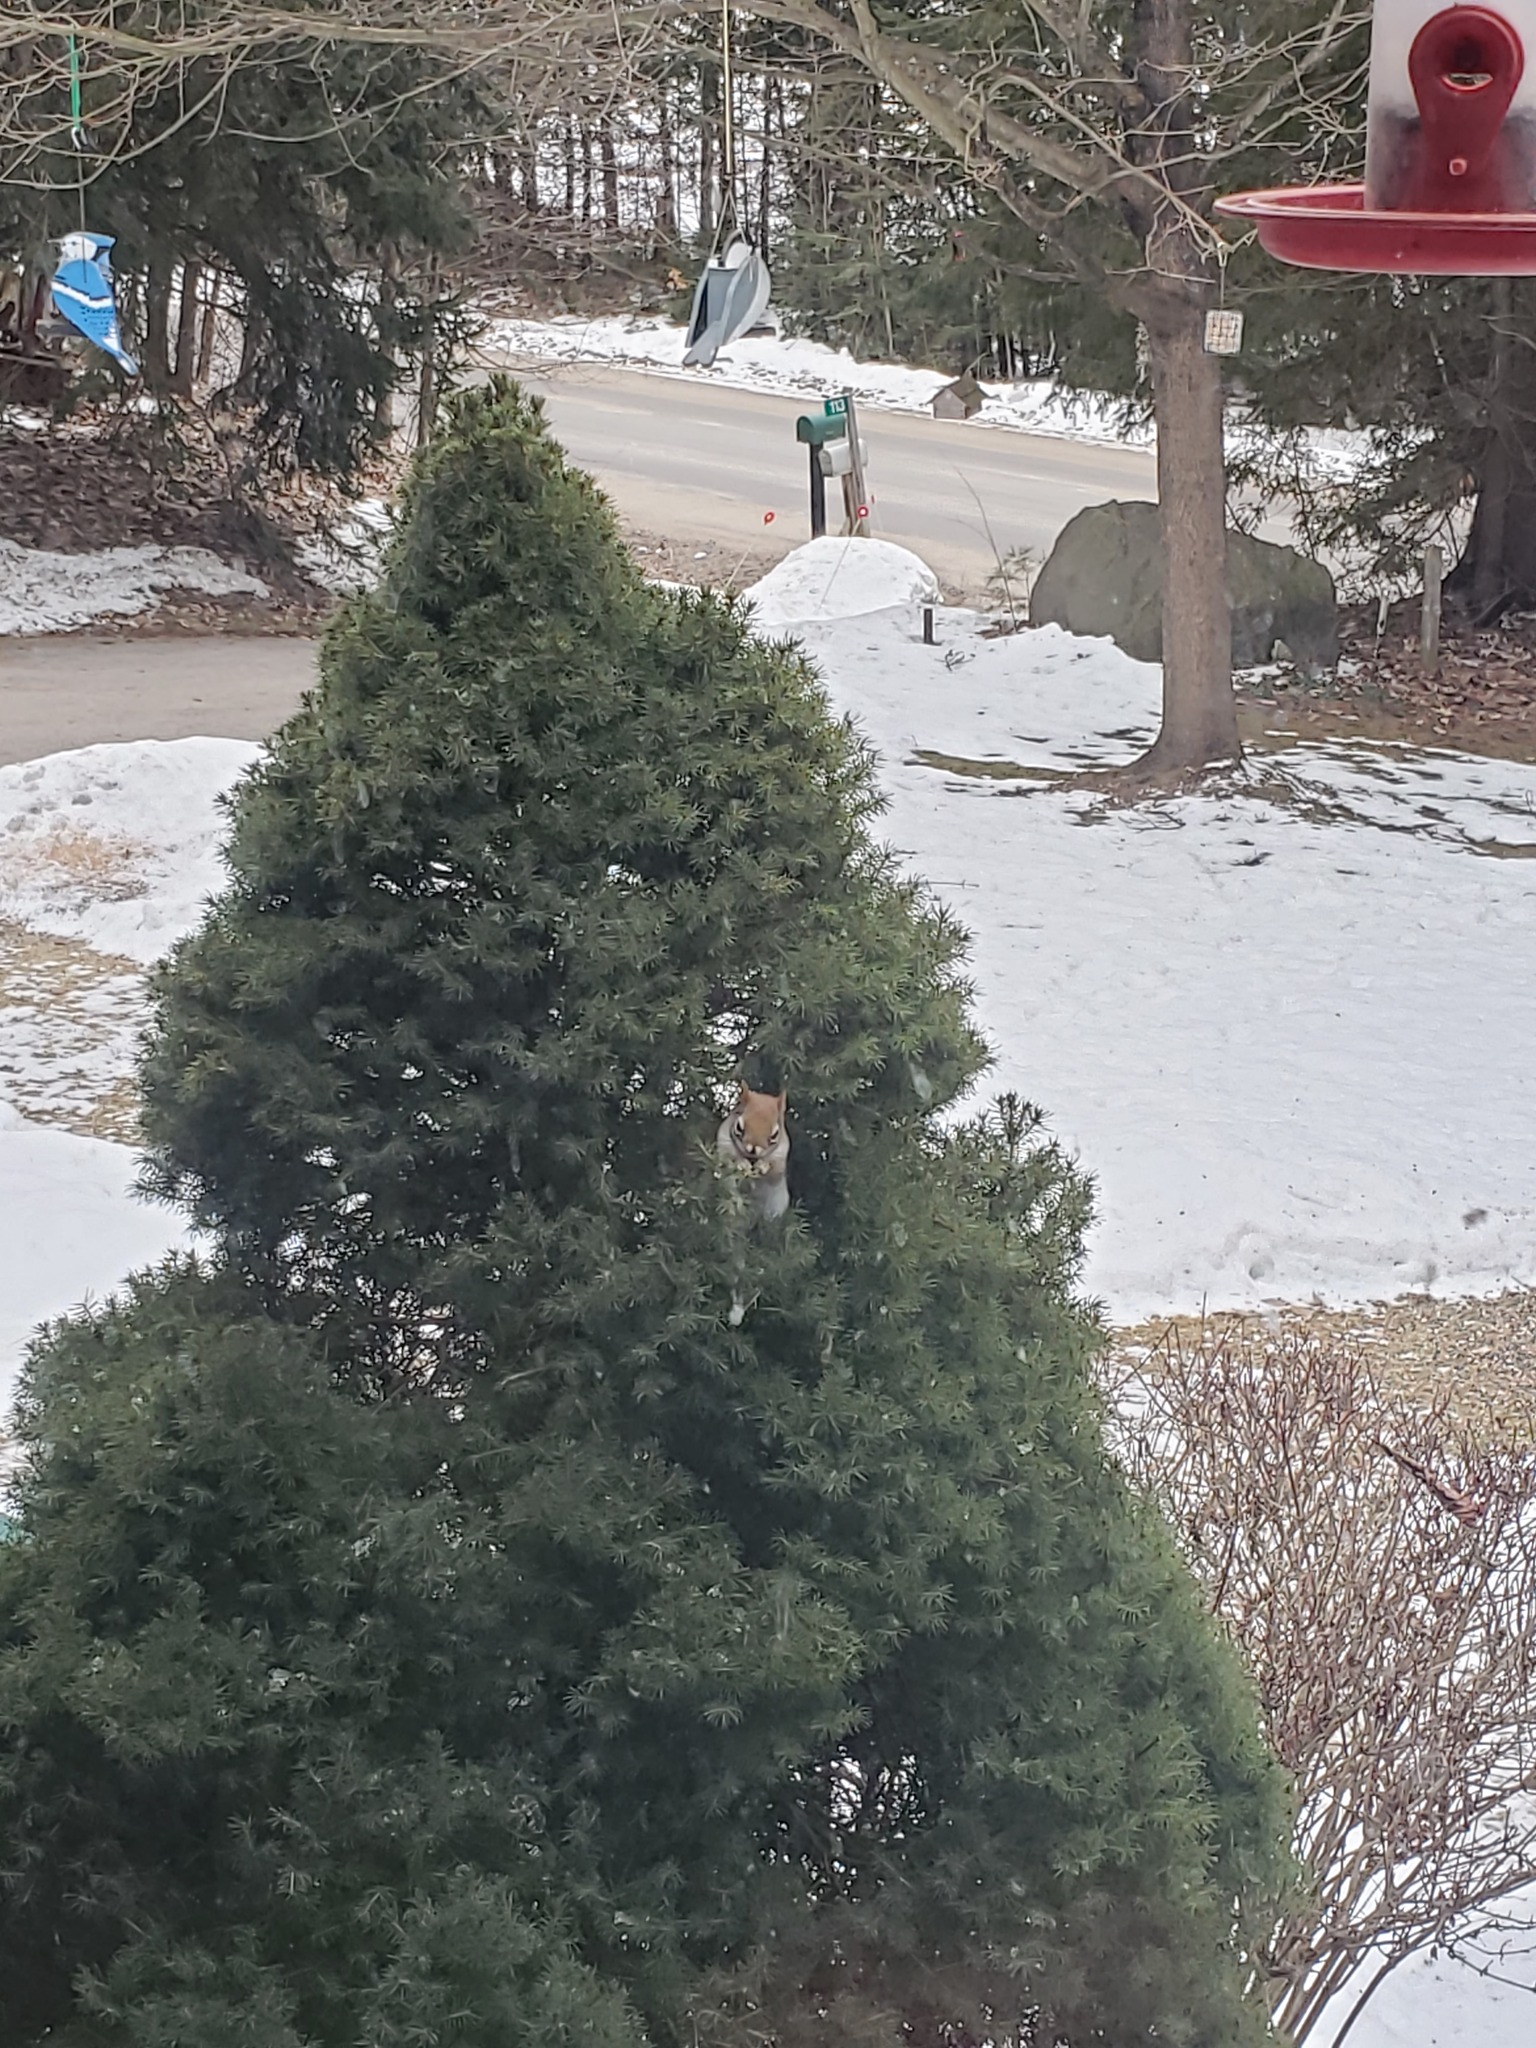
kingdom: Animalia
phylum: Chordata
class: Mammalia
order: Rodentia
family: Sciuridae
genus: Tamiasciurus
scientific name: Tamiasciurus hudsonicus
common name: Red squirrel
